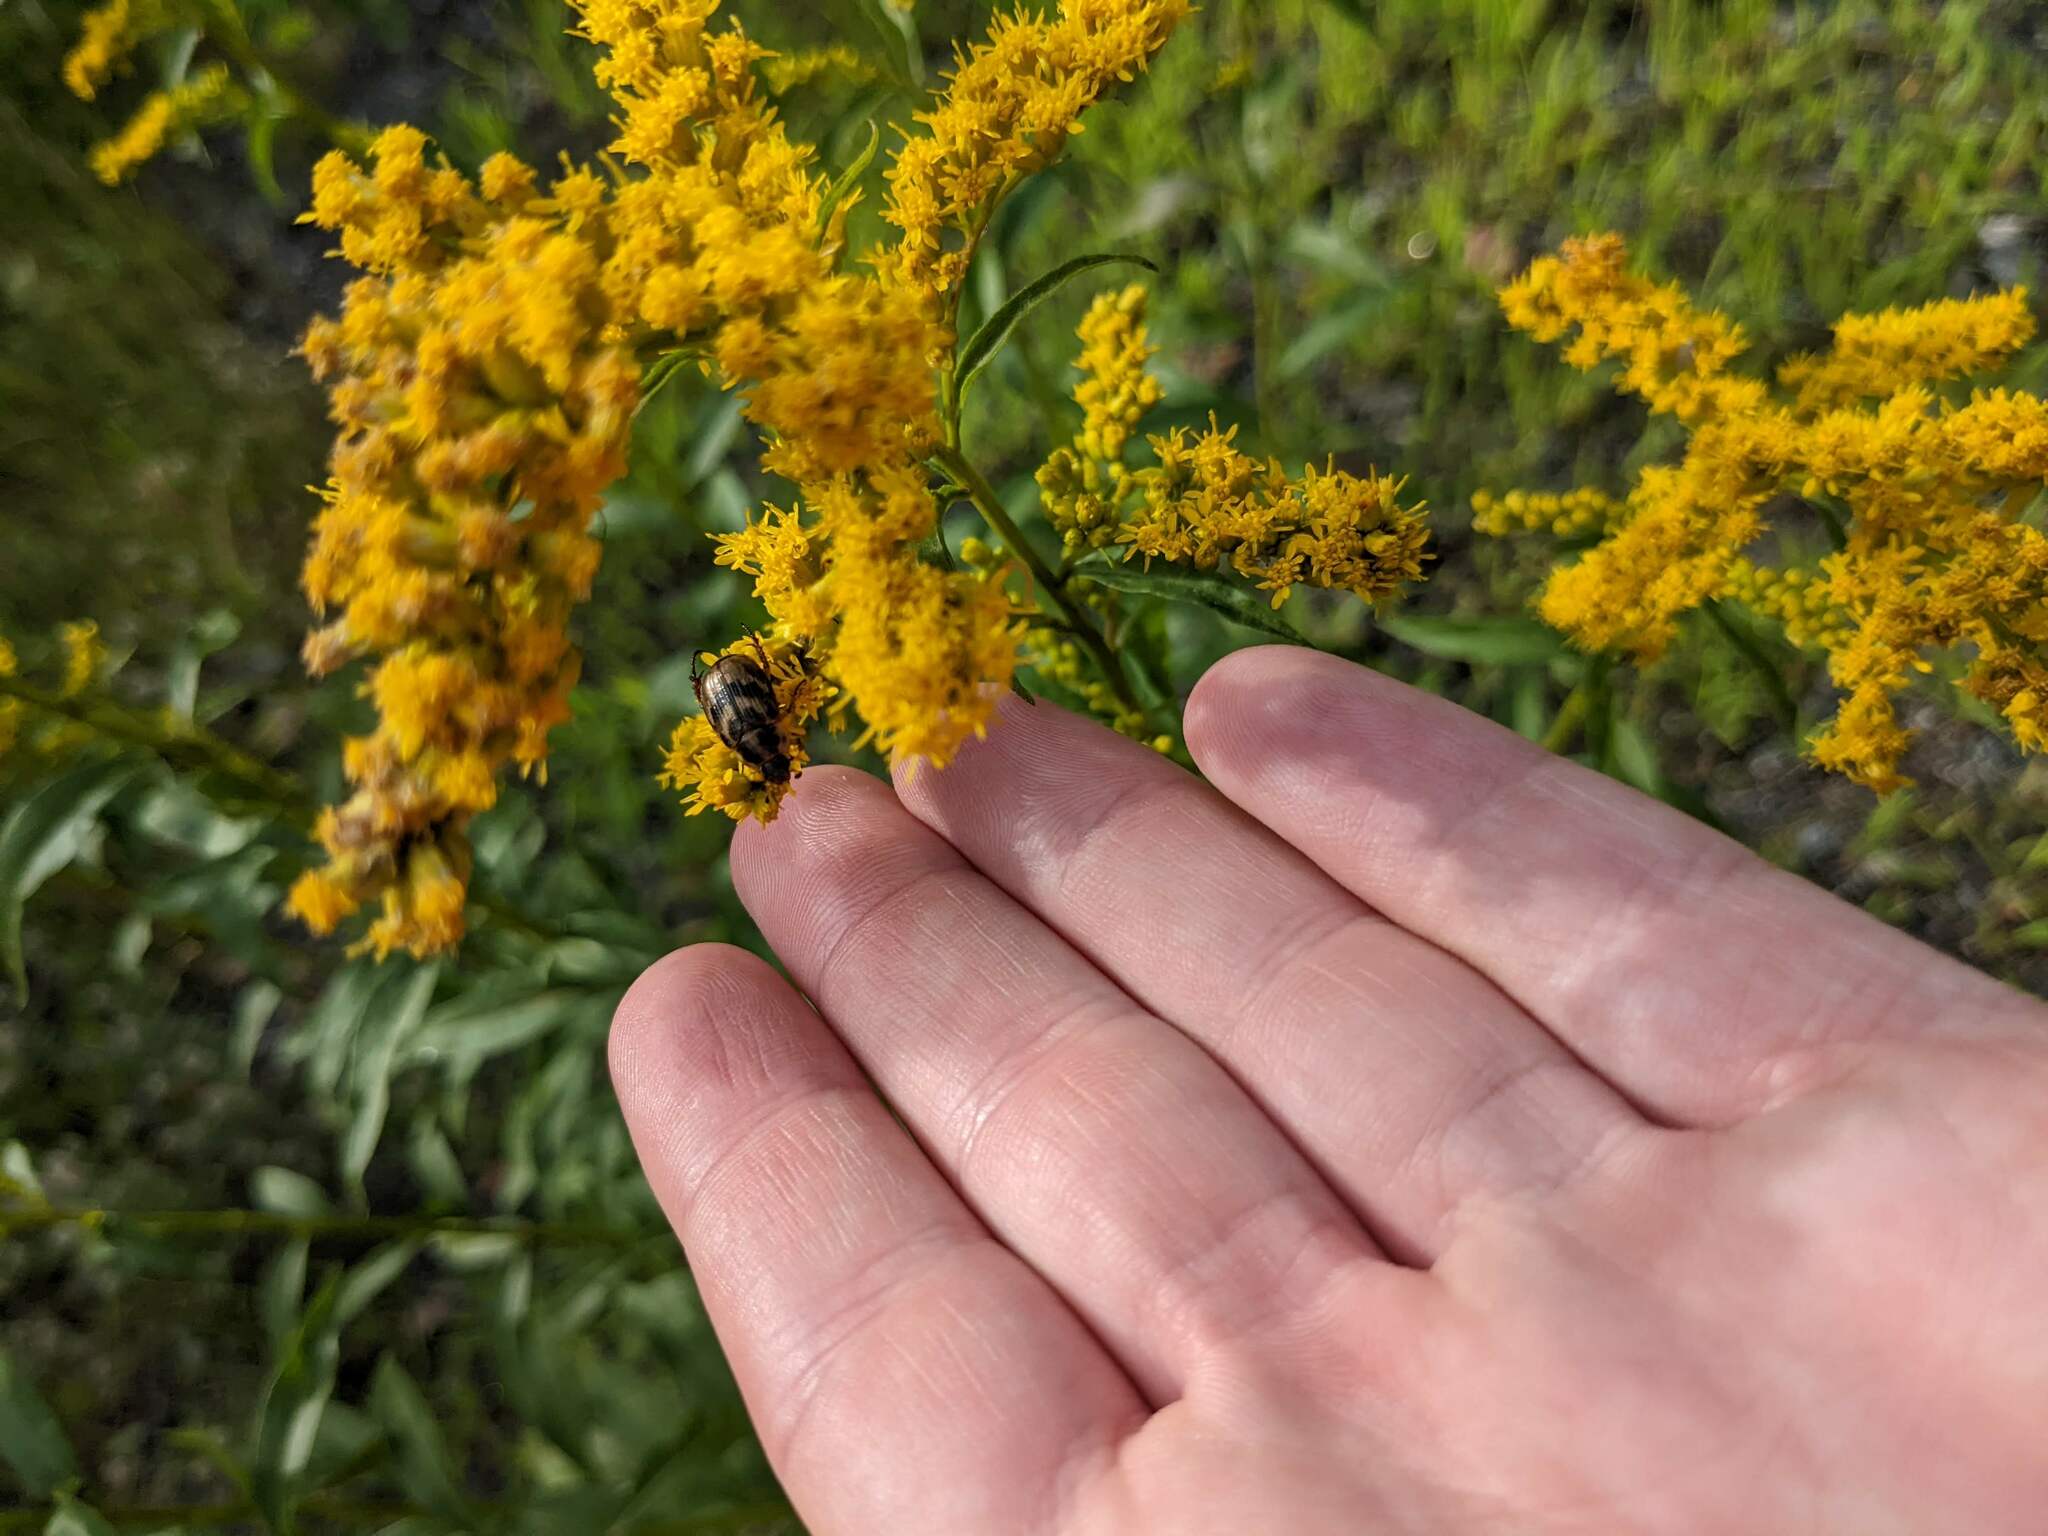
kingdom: Animalia
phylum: Arthropoda
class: Insecta
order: Coleoptera
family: Scarabaeidae
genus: Exomala
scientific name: Exomala orientalis
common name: Oriental beetle
